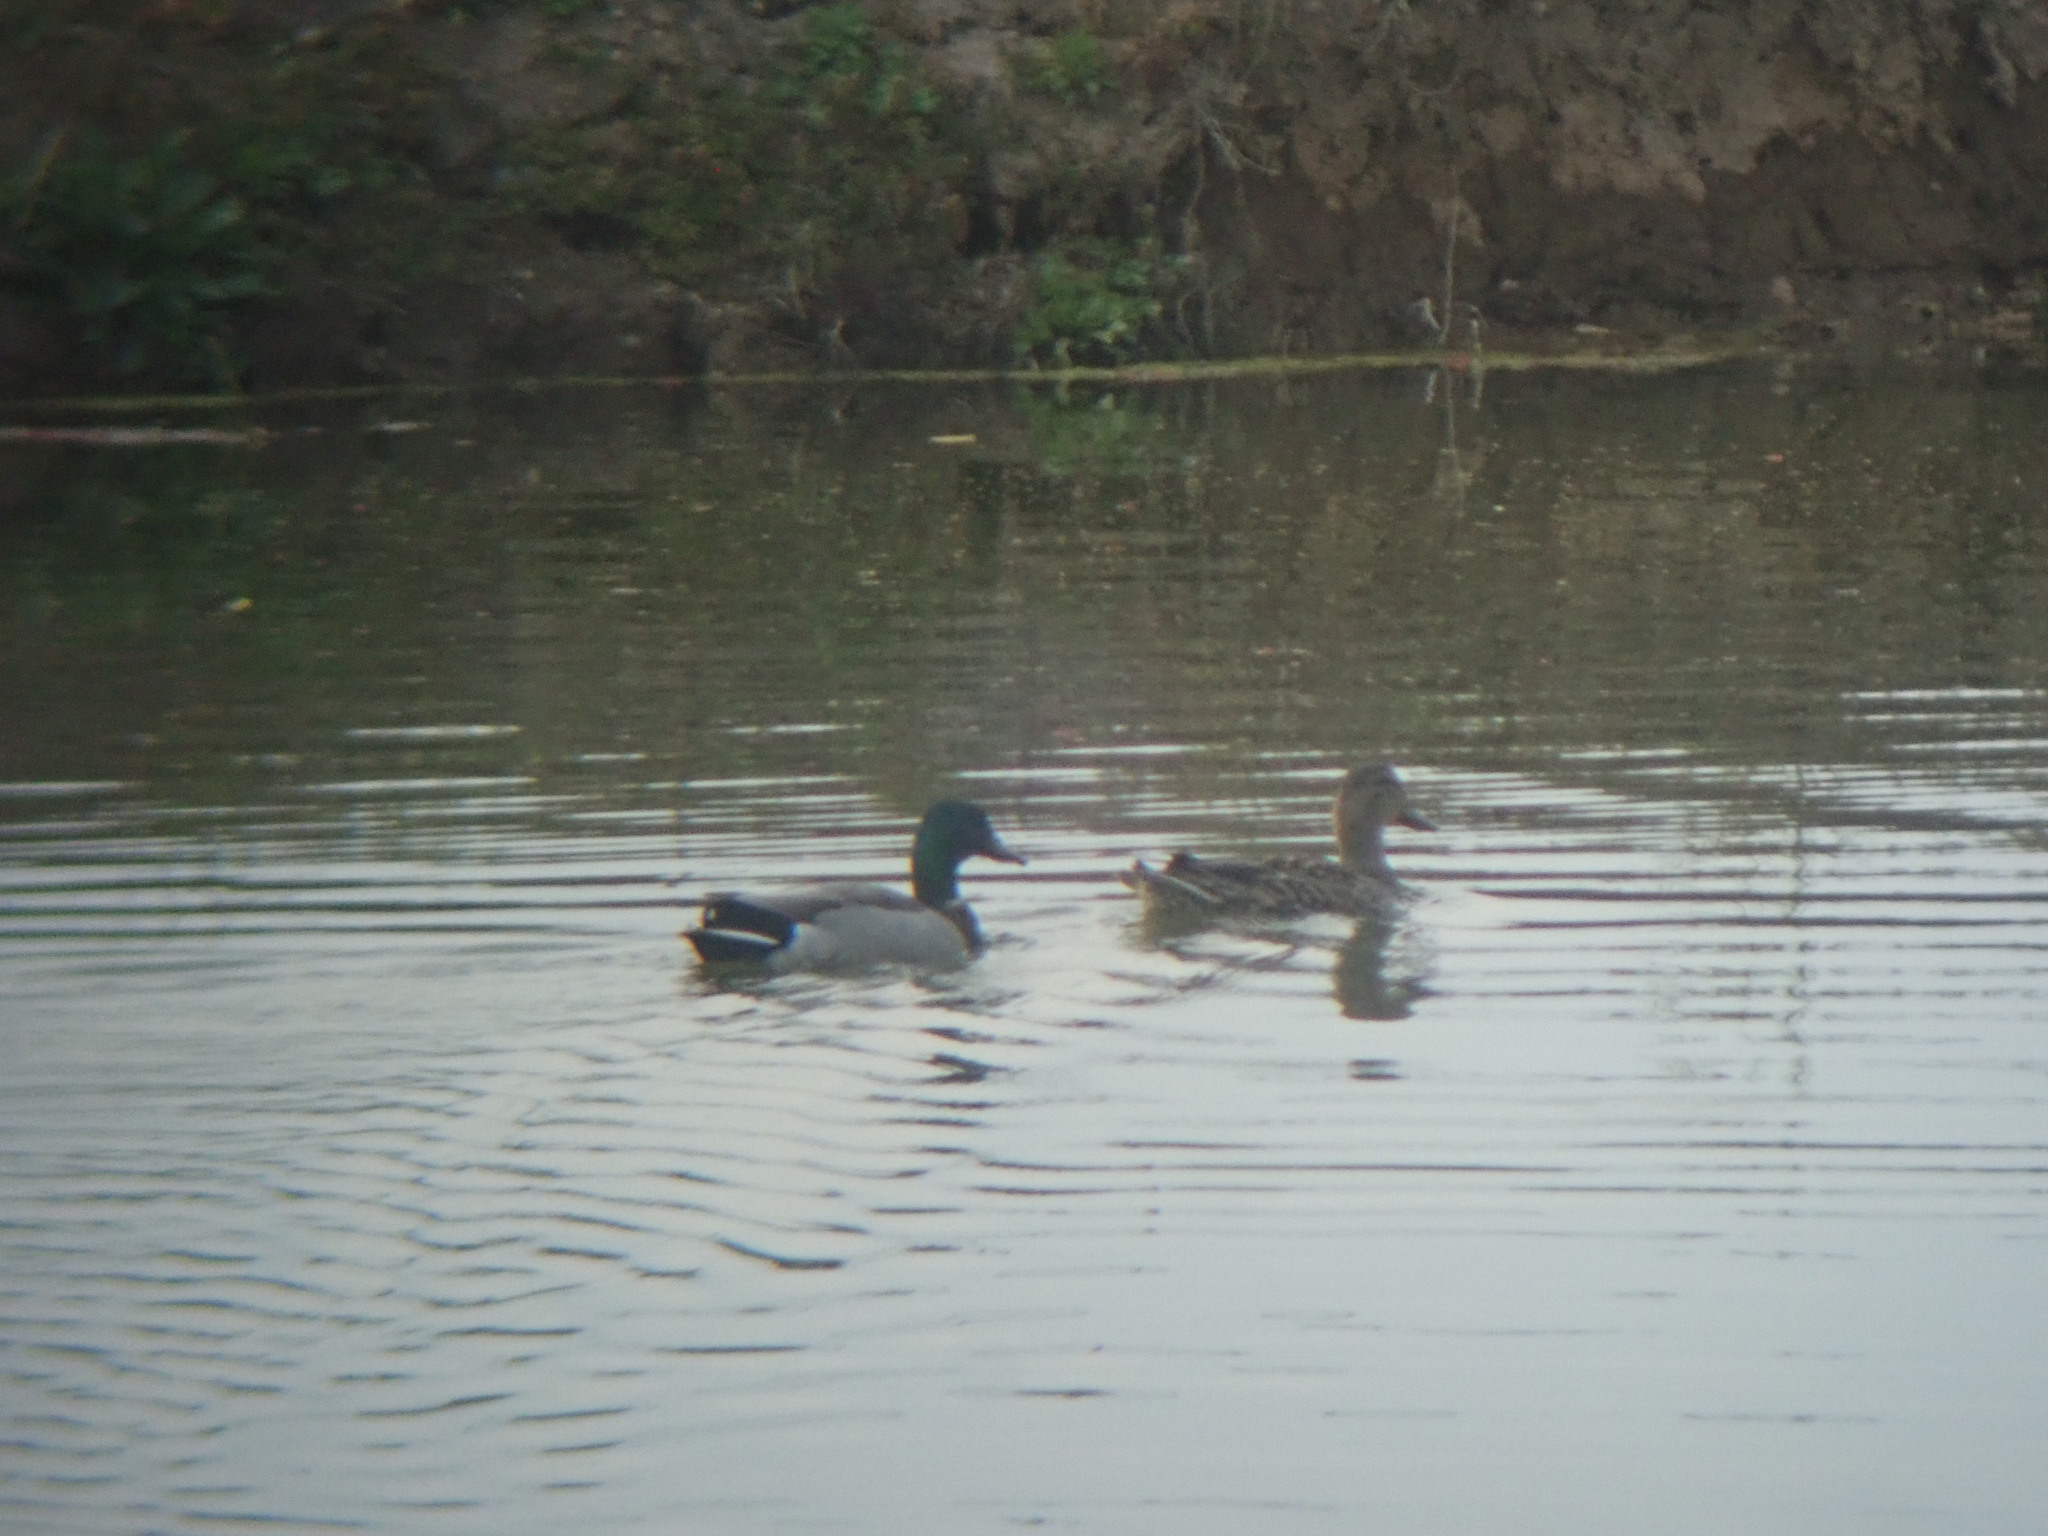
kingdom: Animalia
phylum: Chordata
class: Aves
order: Anseriformes
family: Anatidae
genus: Anas
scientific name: Anas platyrhynchos
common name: Mallard
